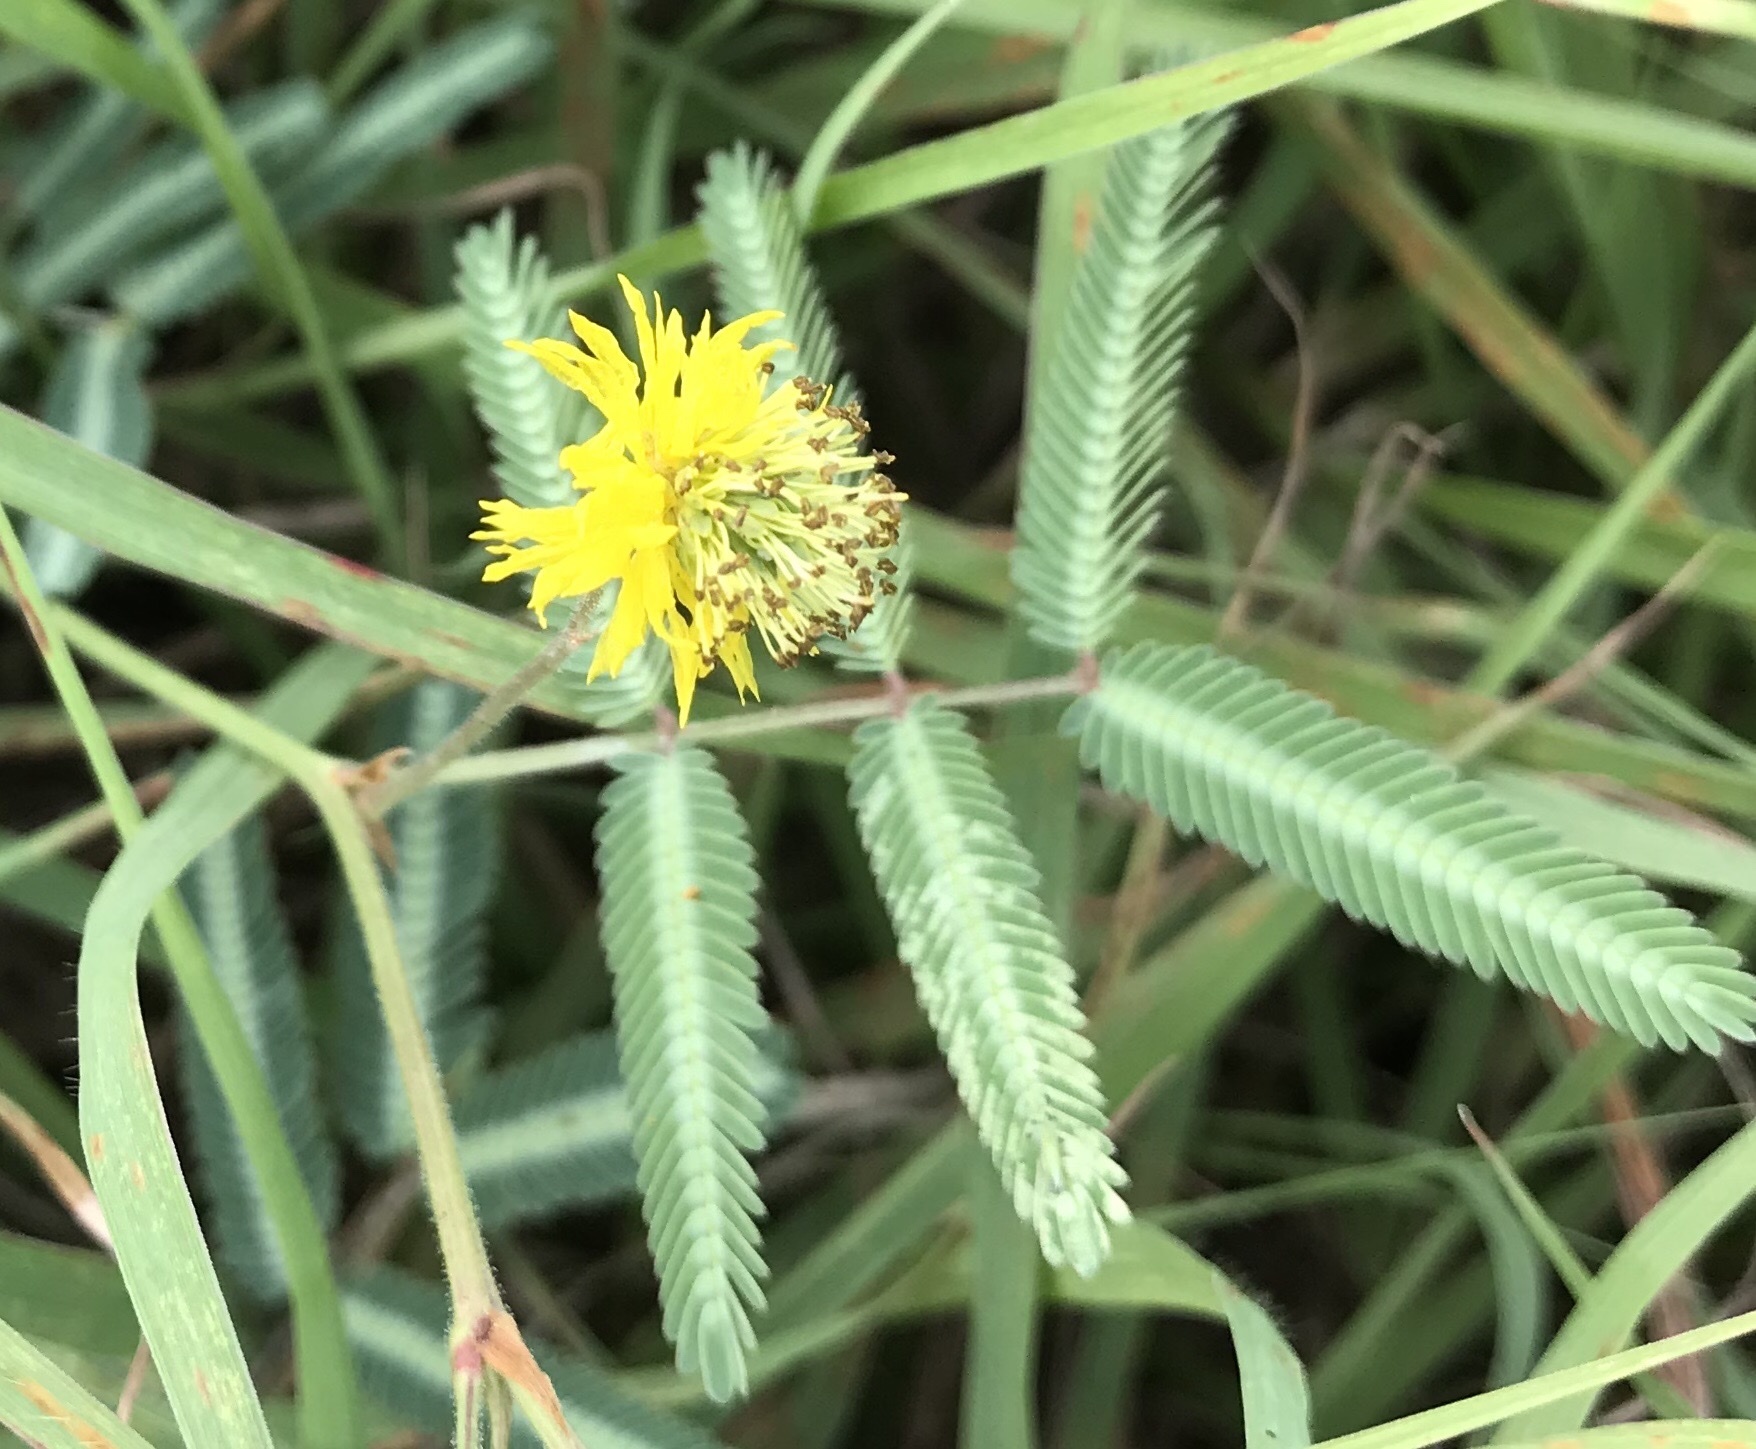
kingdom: Plantae
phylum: Tracheophyta
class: Magnoliopsida
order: Fabales
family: Fabaceae
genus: Neptunia
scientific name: Neptunia pubescens
